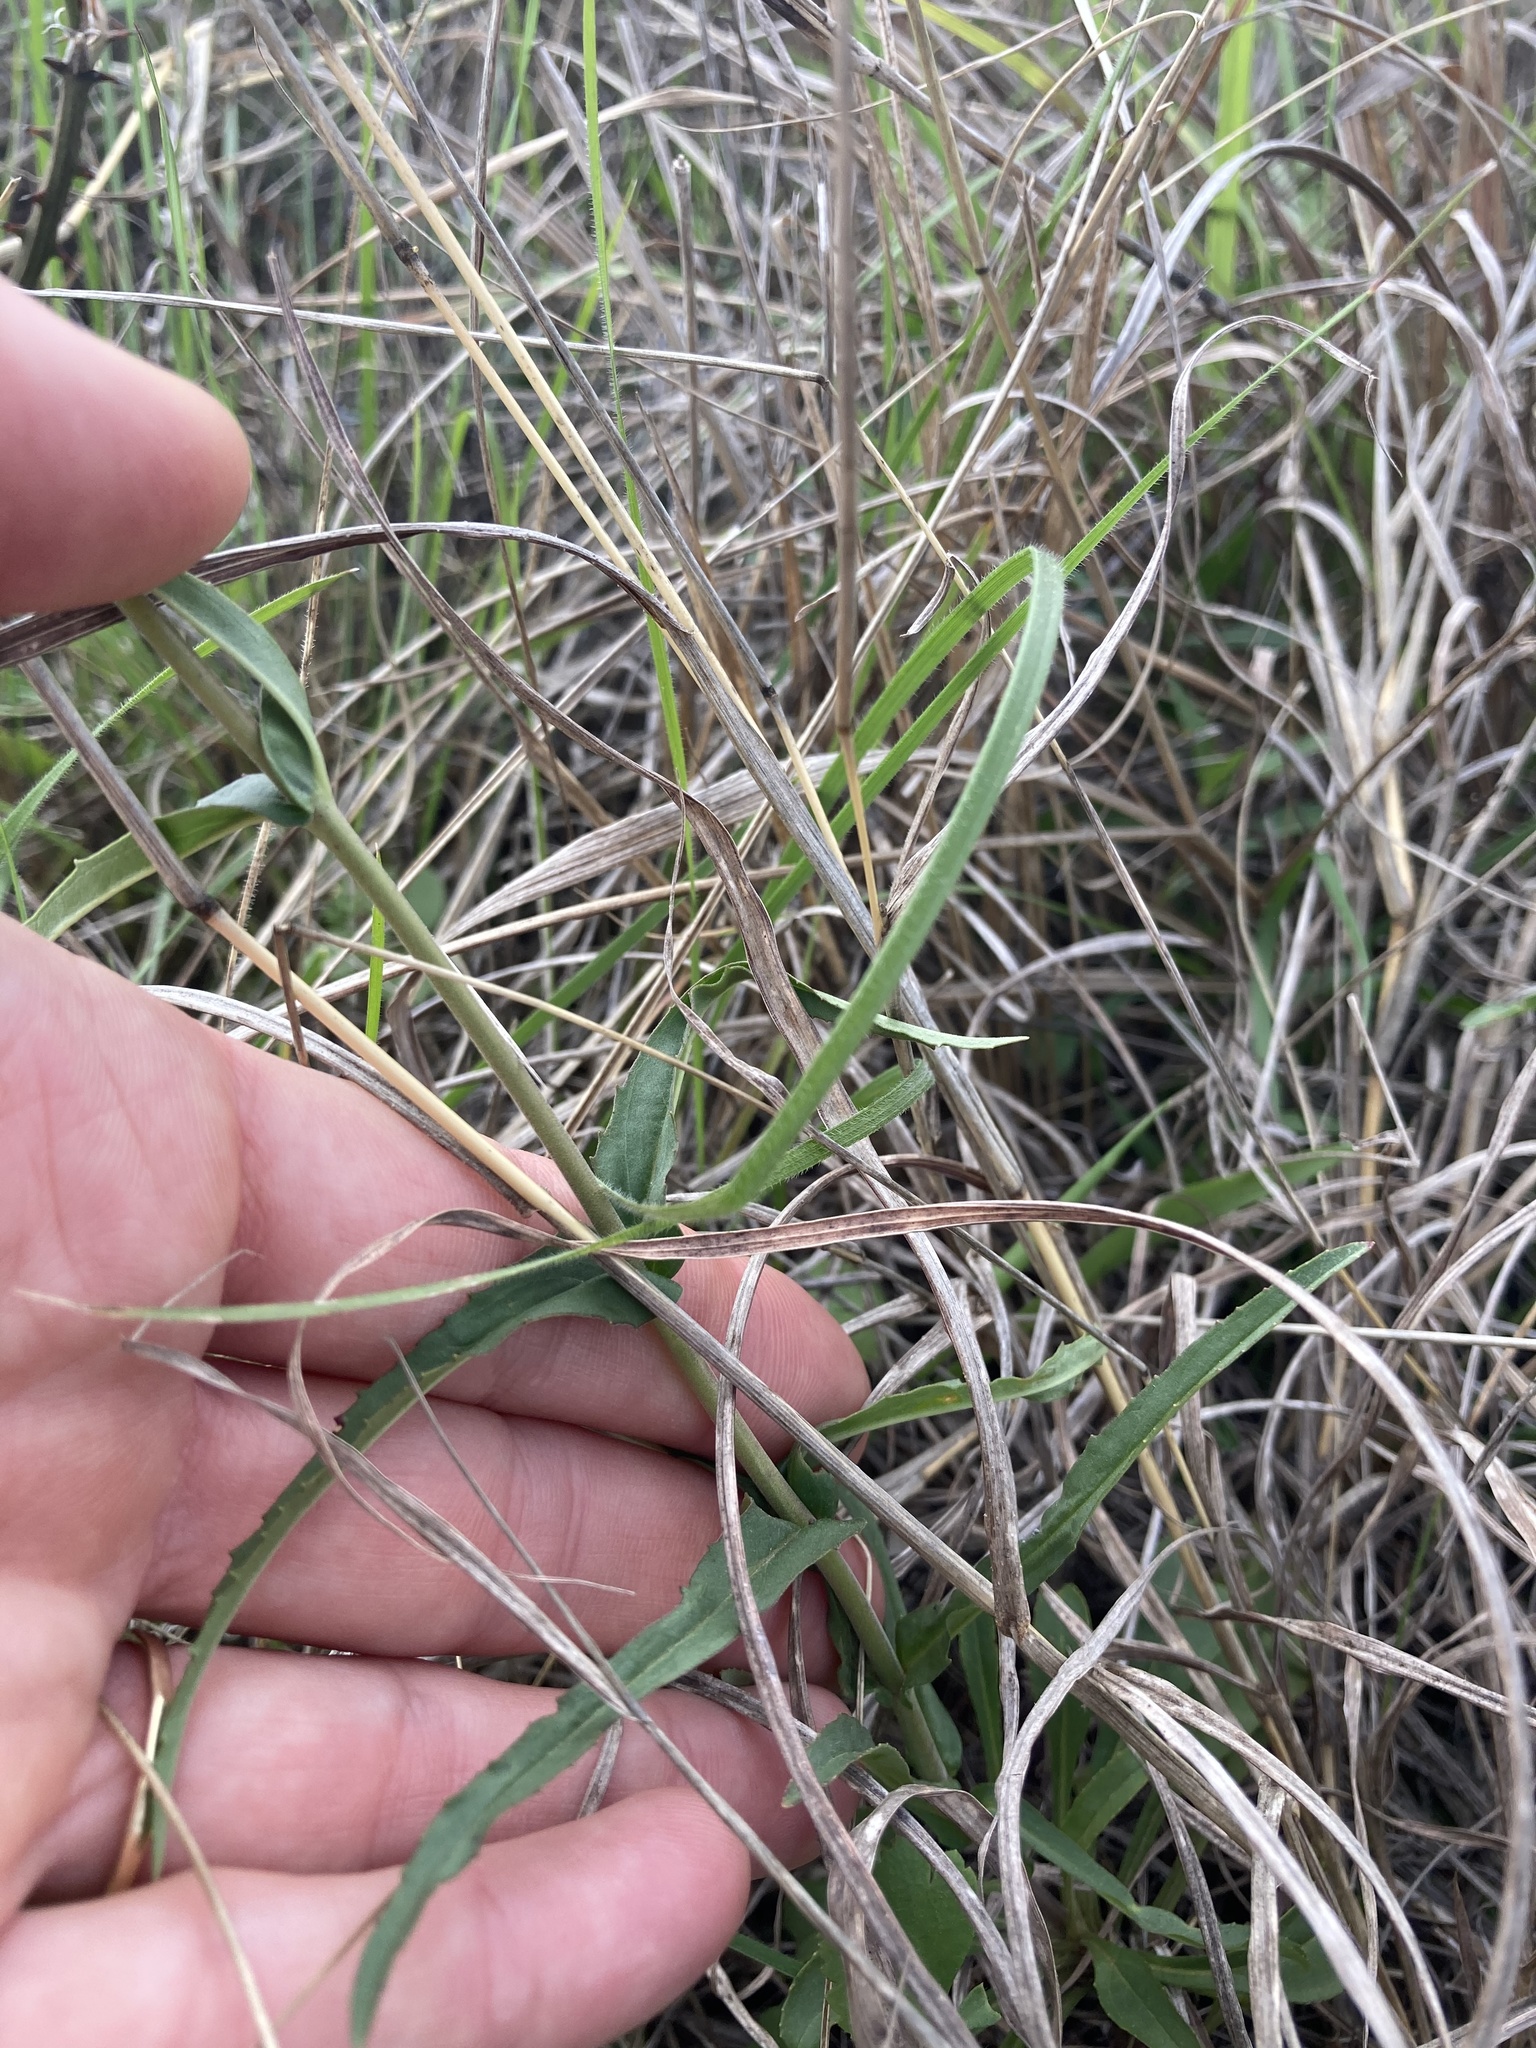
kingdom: Plantae
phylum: Tracheophyta
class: Magnoliopsida
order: Lamiales
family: Plantaginaceae
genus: Penstemon
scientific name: Penstemon laxiflorus
